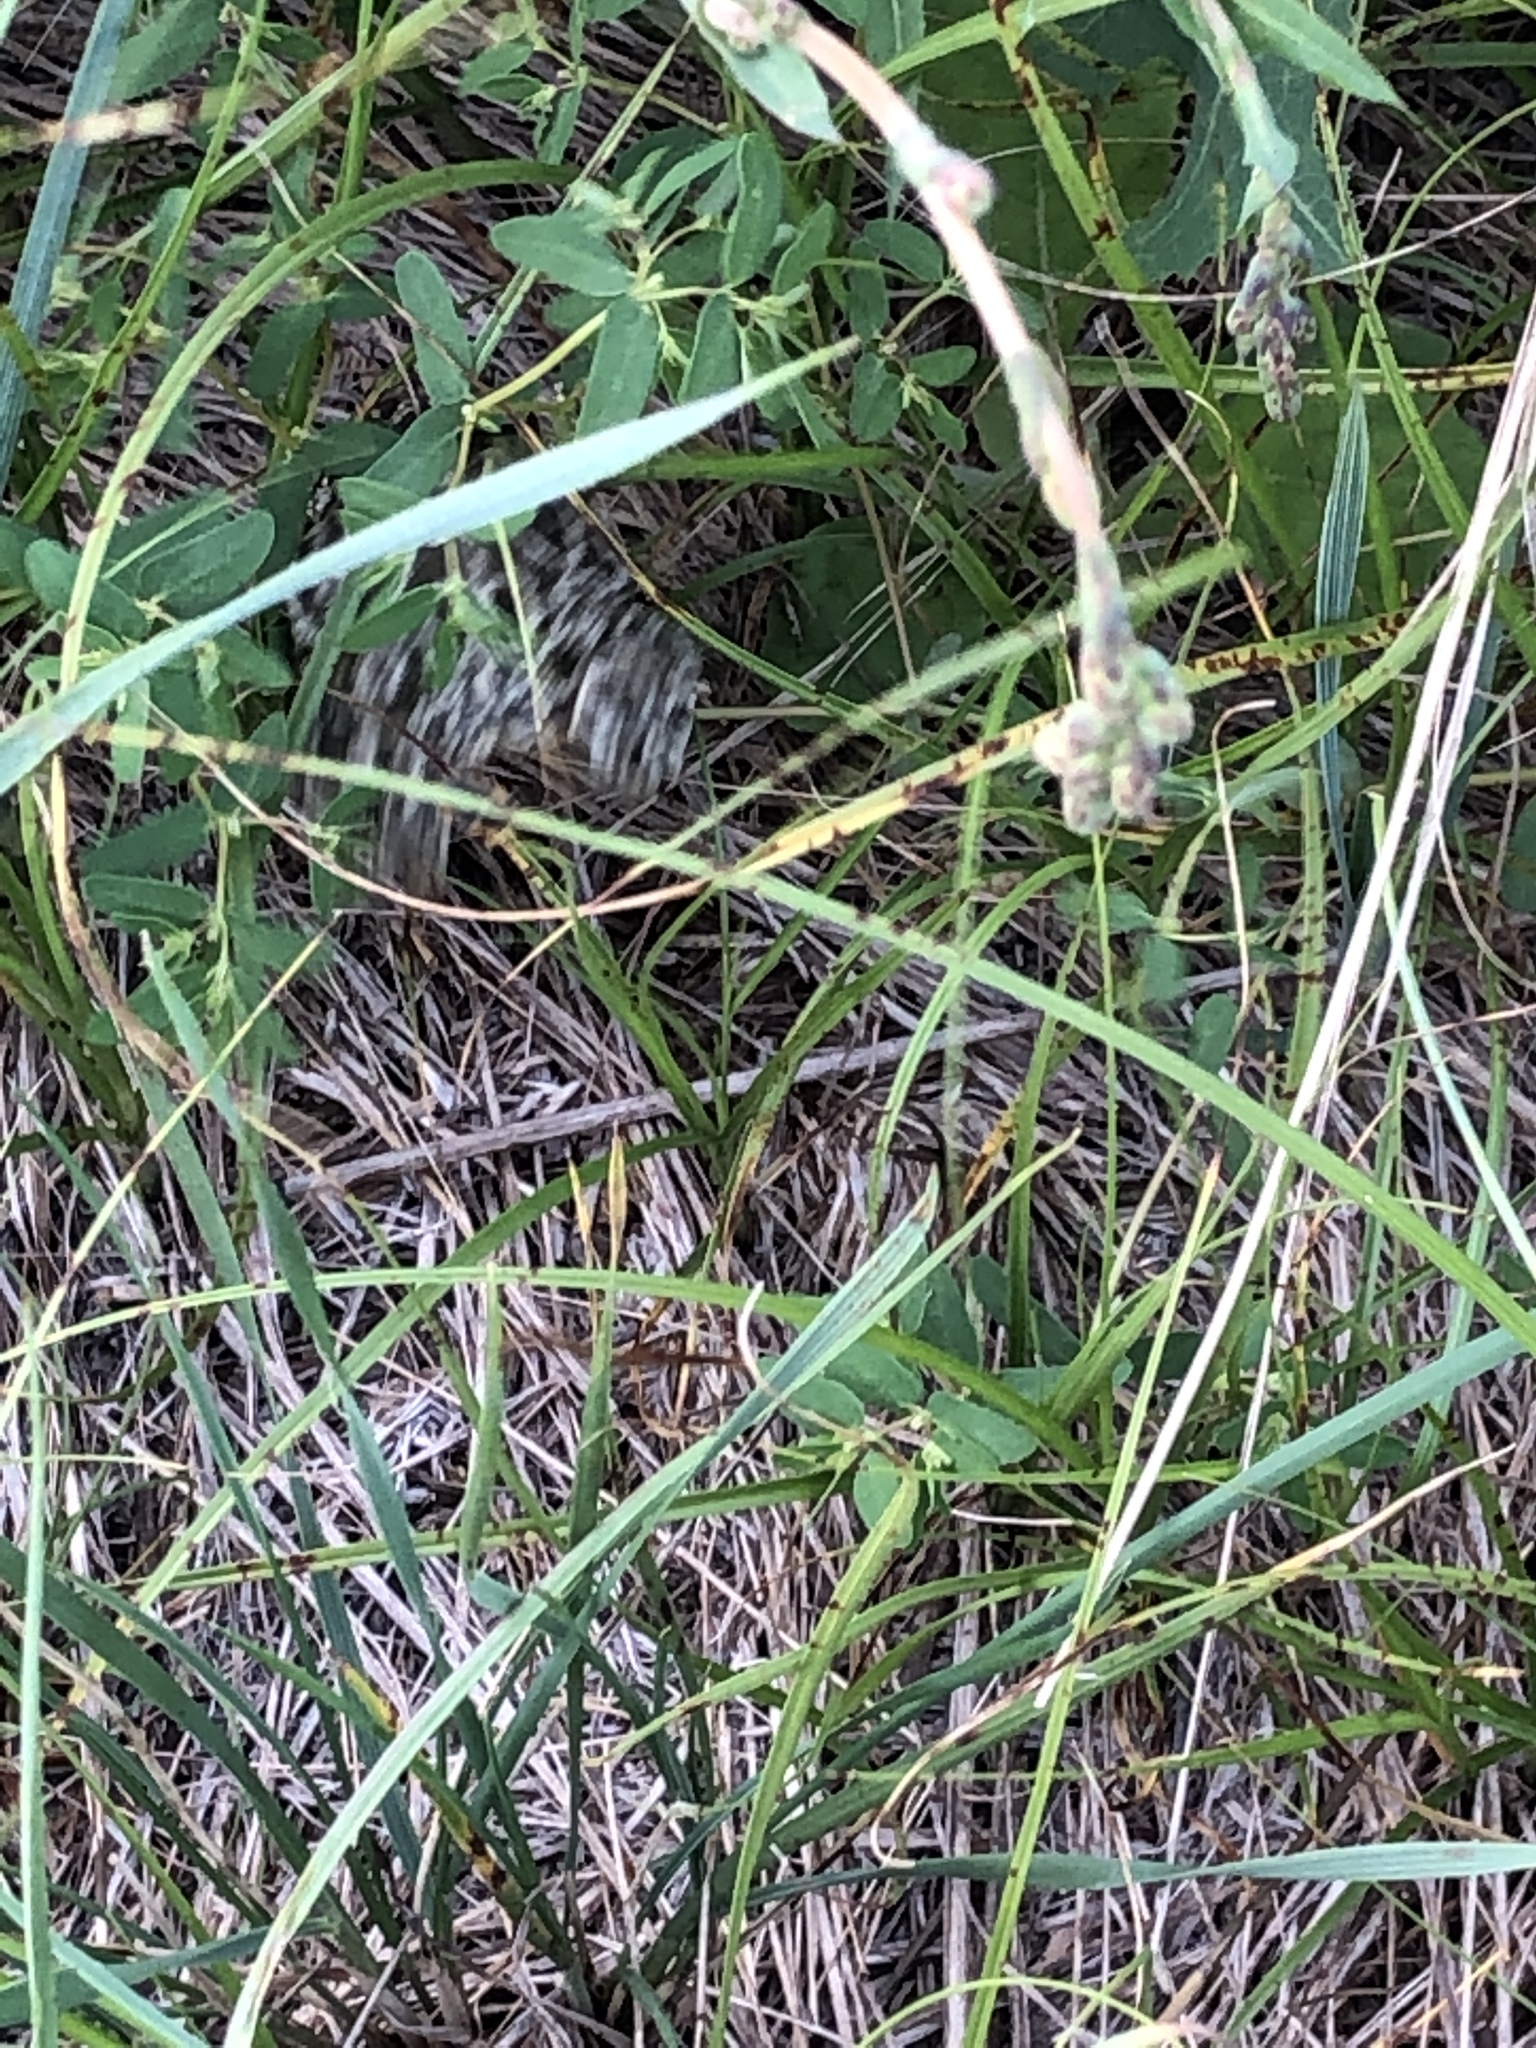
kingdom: Animalia
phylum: Chordata
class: Amphibia
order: Anura
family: Bufonidae
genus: Anaxyrus
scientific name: Anaxyrus woodhousii
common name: Woodhouse's toad
